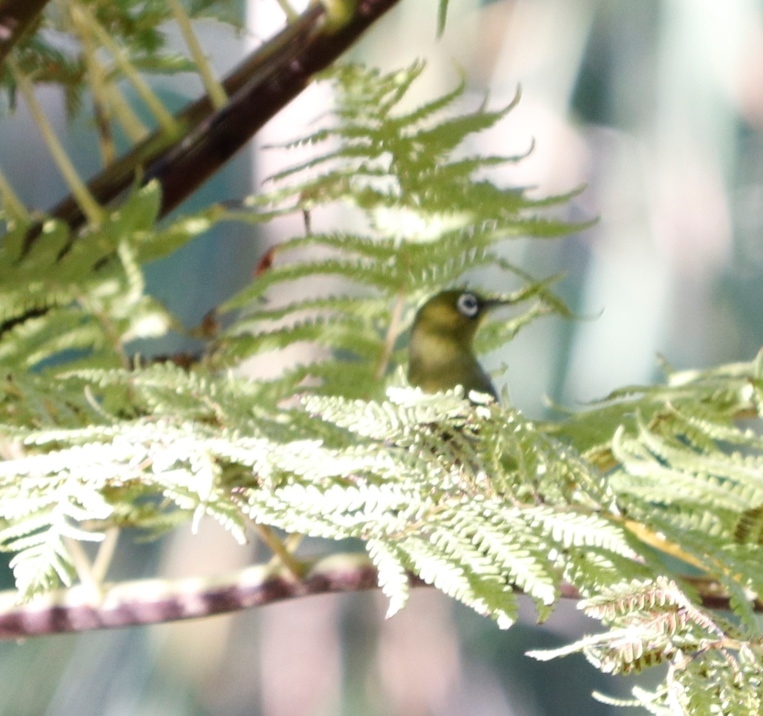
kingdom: Animalia
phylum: Chordata
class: Aves
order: Passeriformes
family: Zosteropidae
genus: Zosterops
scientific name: Zosterops virens
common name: Cape white-eye
